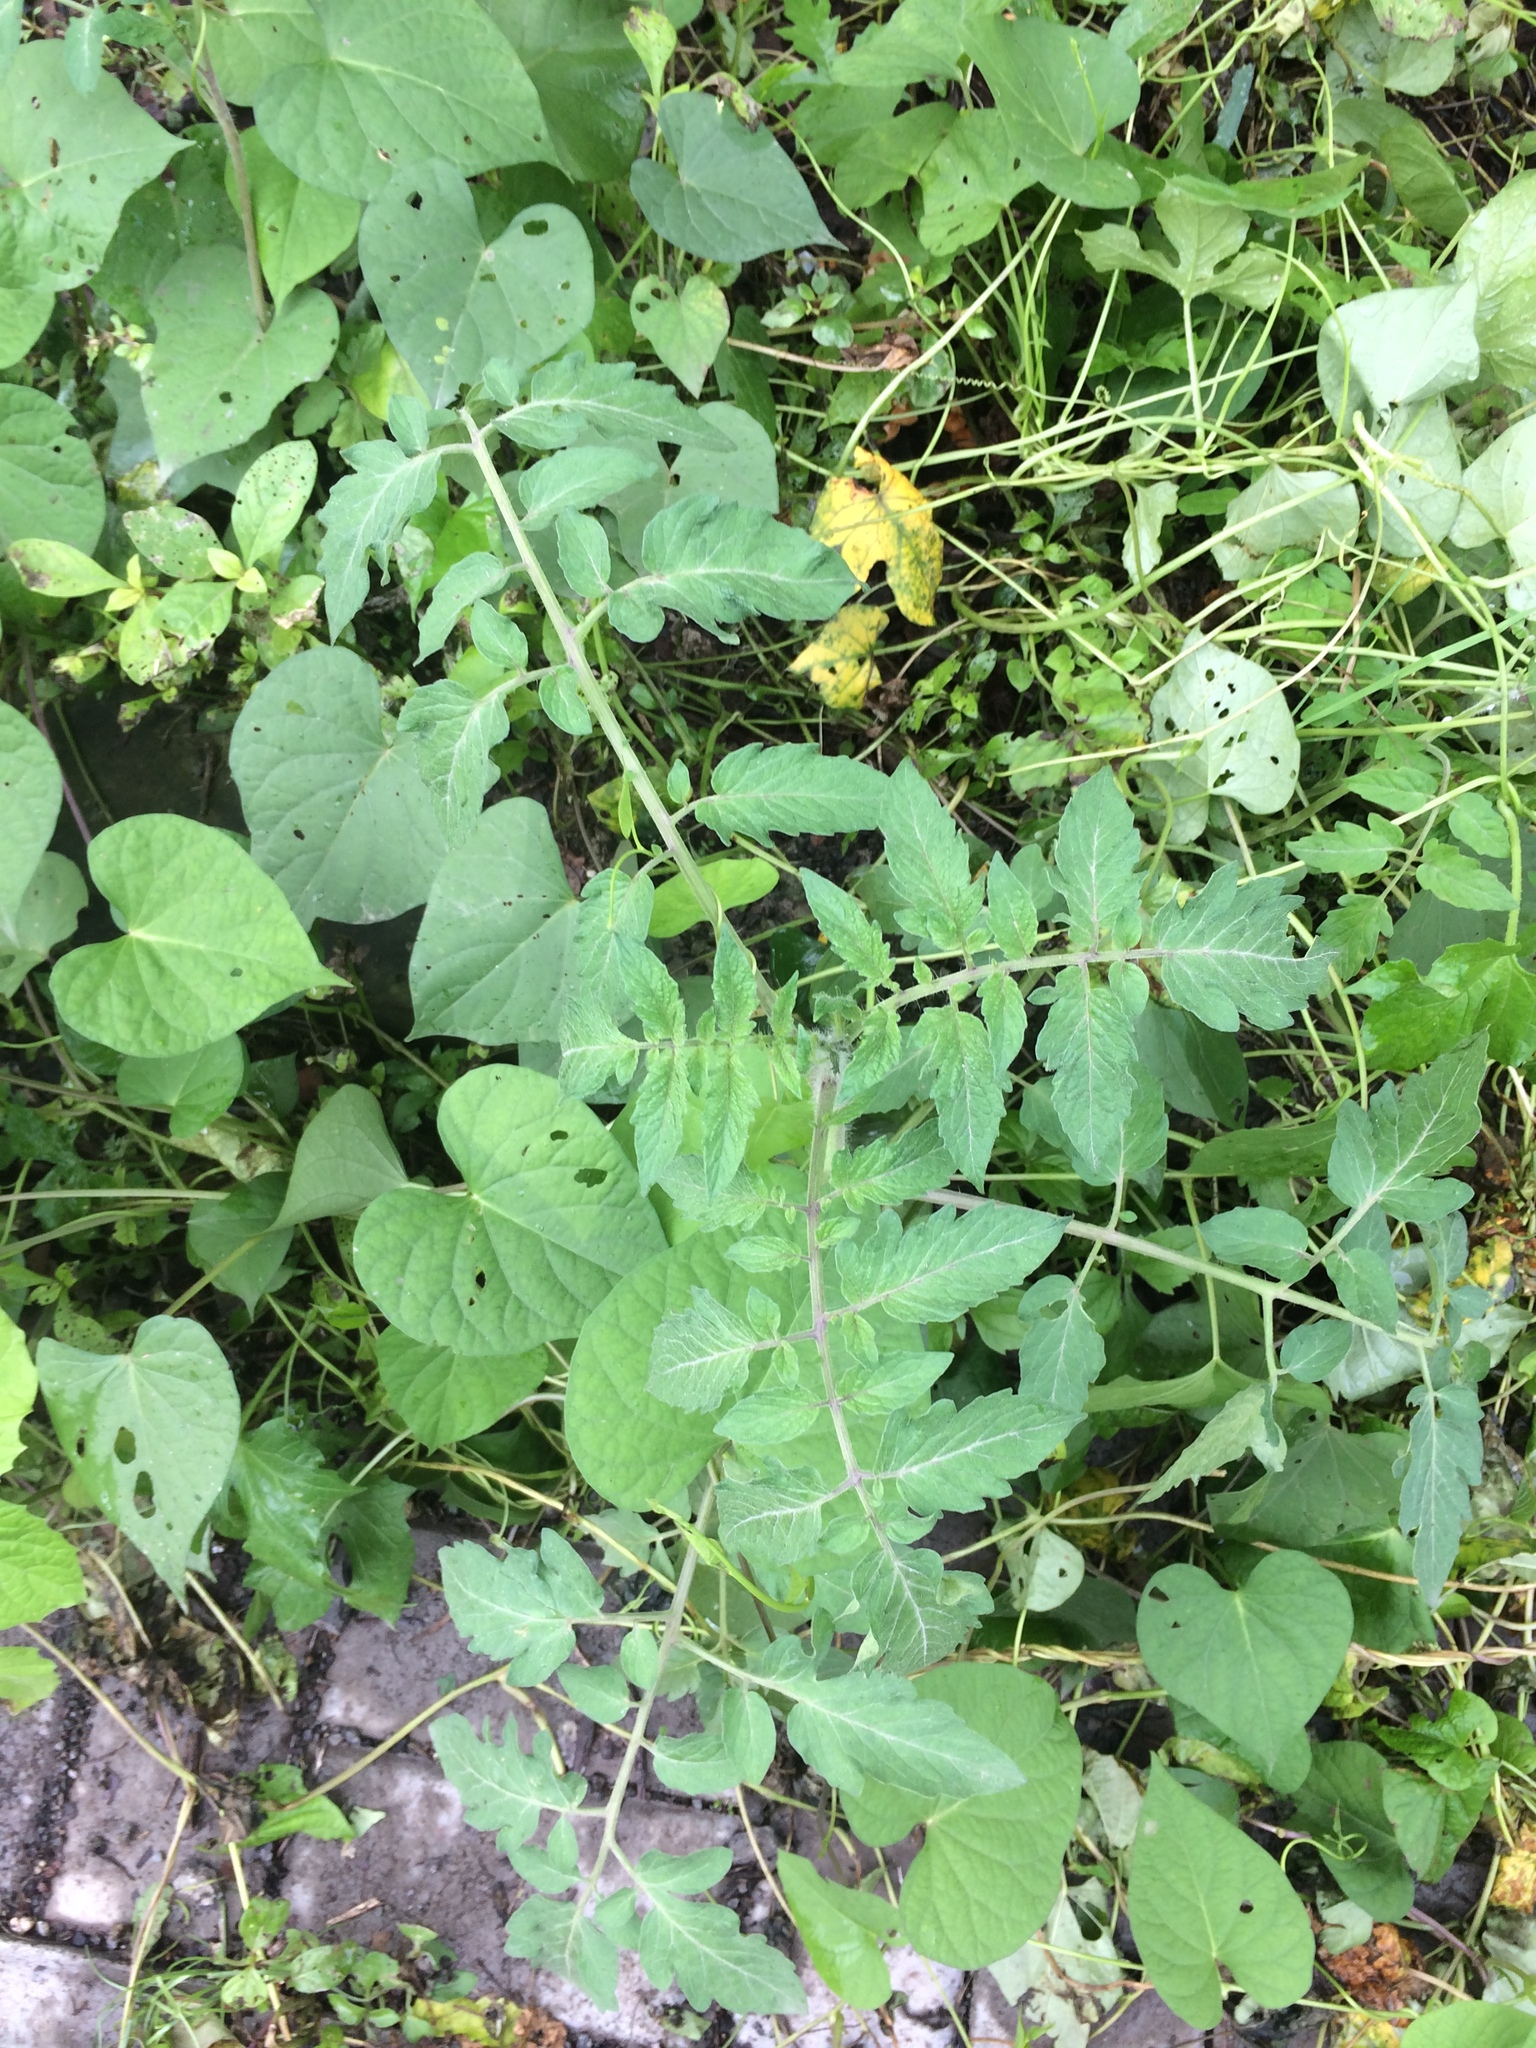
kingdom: Plantae
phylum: Tracheophyta
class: Magnoliopsida
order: Solanales
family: Solanaceae
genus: Solanum
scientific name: Solanum lycopersicum
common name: Garden tomato
